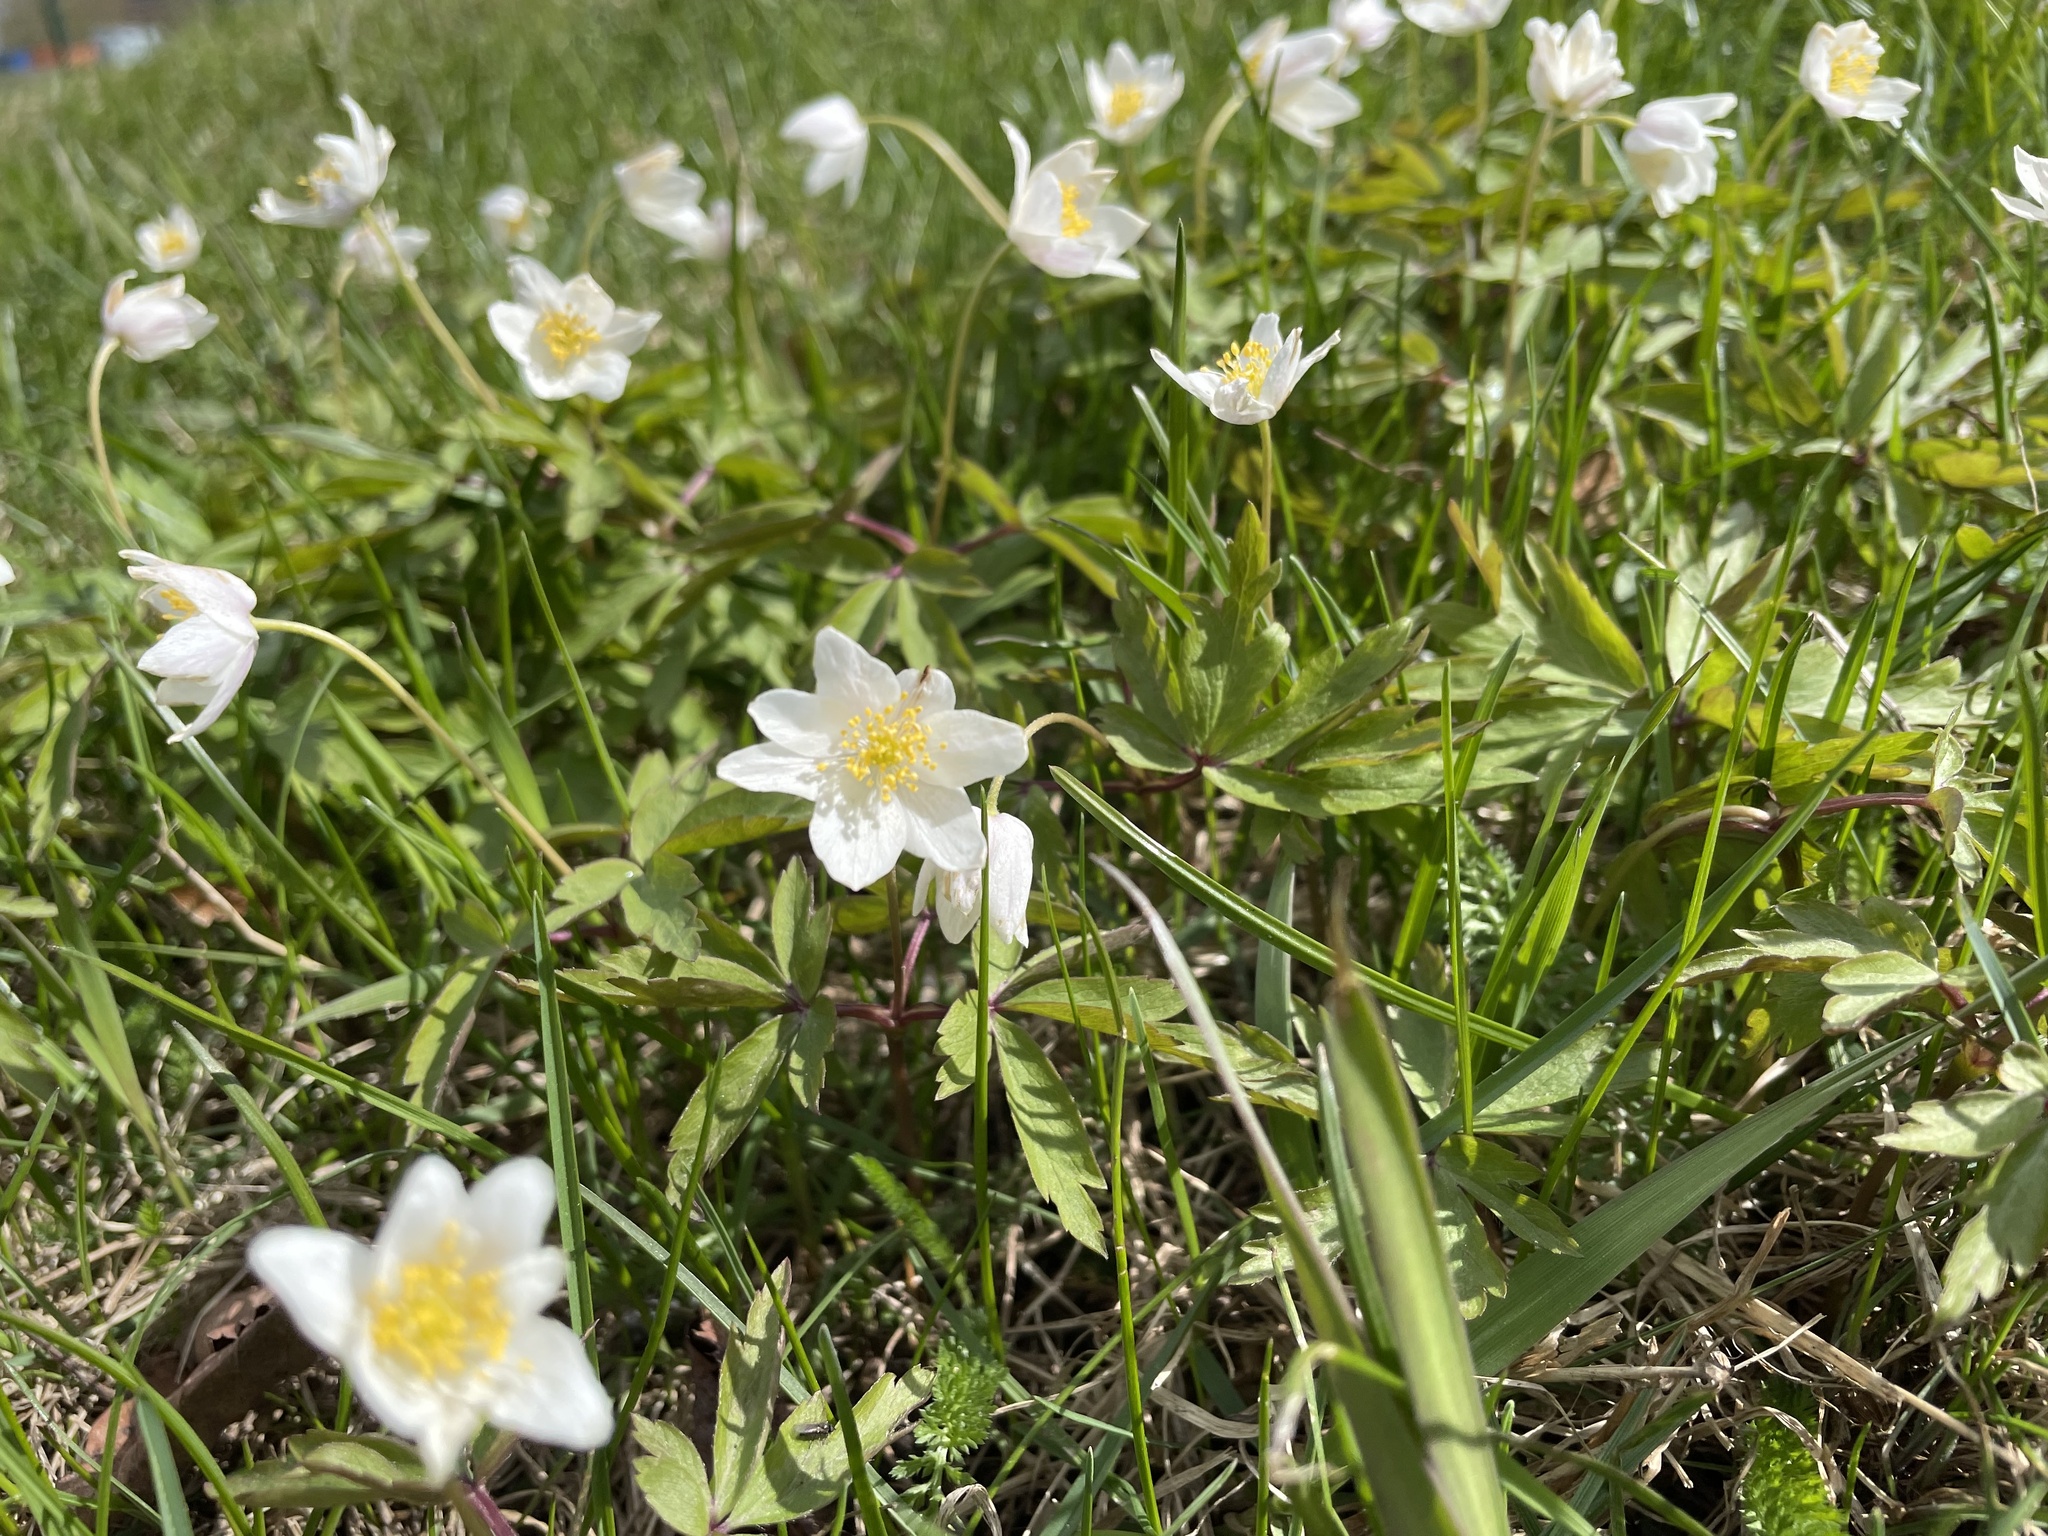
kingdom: Plantae
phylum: Tracheophyta
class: Magnoliopsida
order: Ranunculales
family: Ranunculaceae
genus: Anemone
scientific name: Anemone nemorosa
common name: Wood anemone
